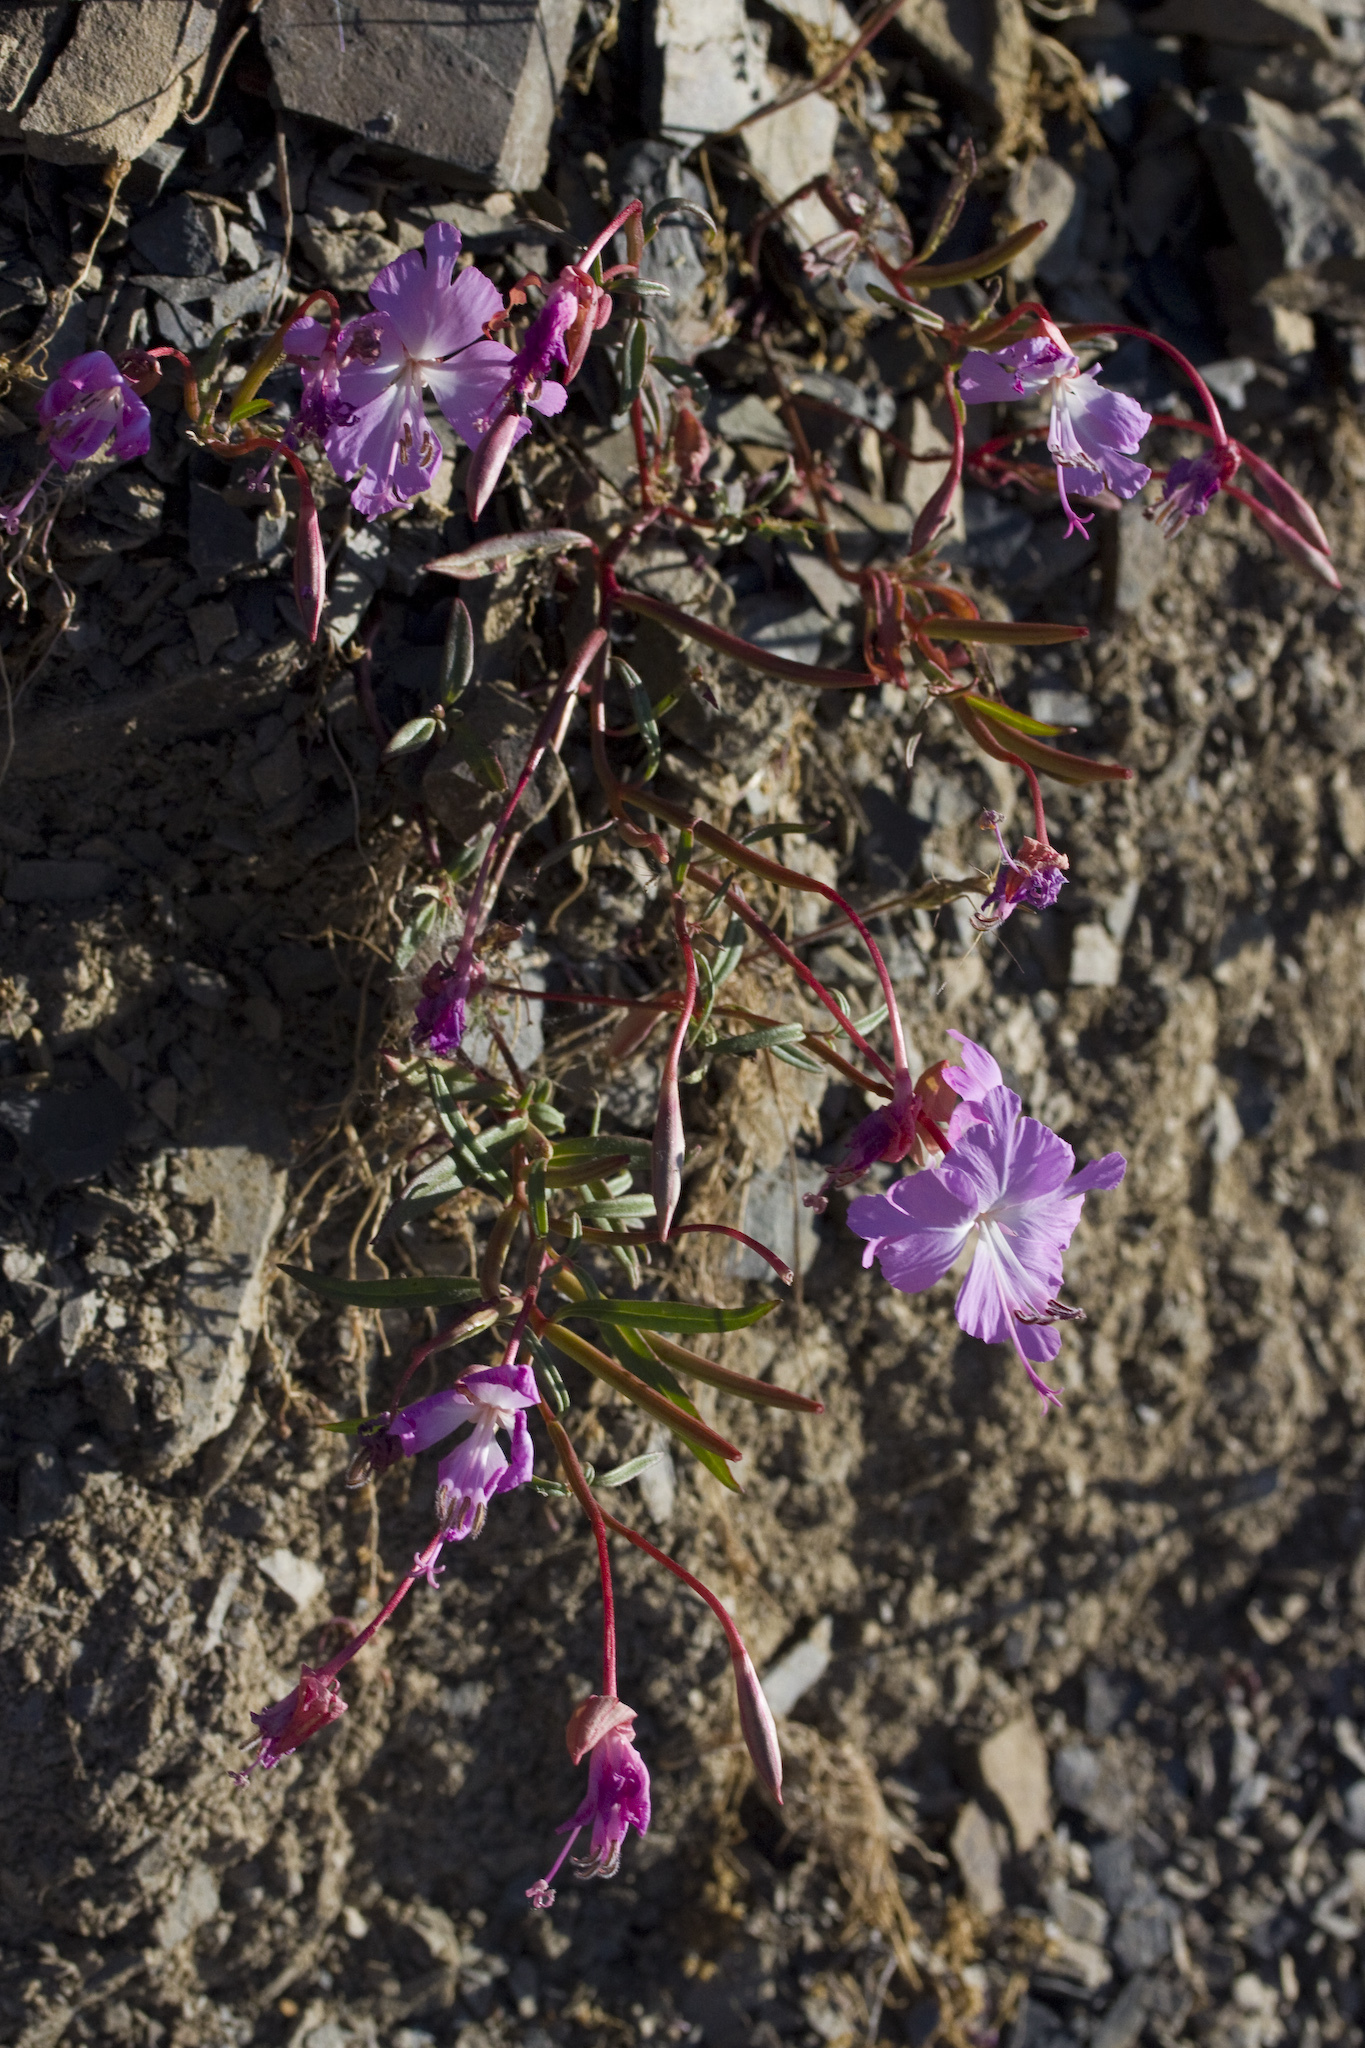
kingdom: Plantae
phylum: Tracheophyta
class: Magnoliopsida
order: Myrtales
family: Onagraceae
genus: Clarkia
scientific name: Clarkia breweri
